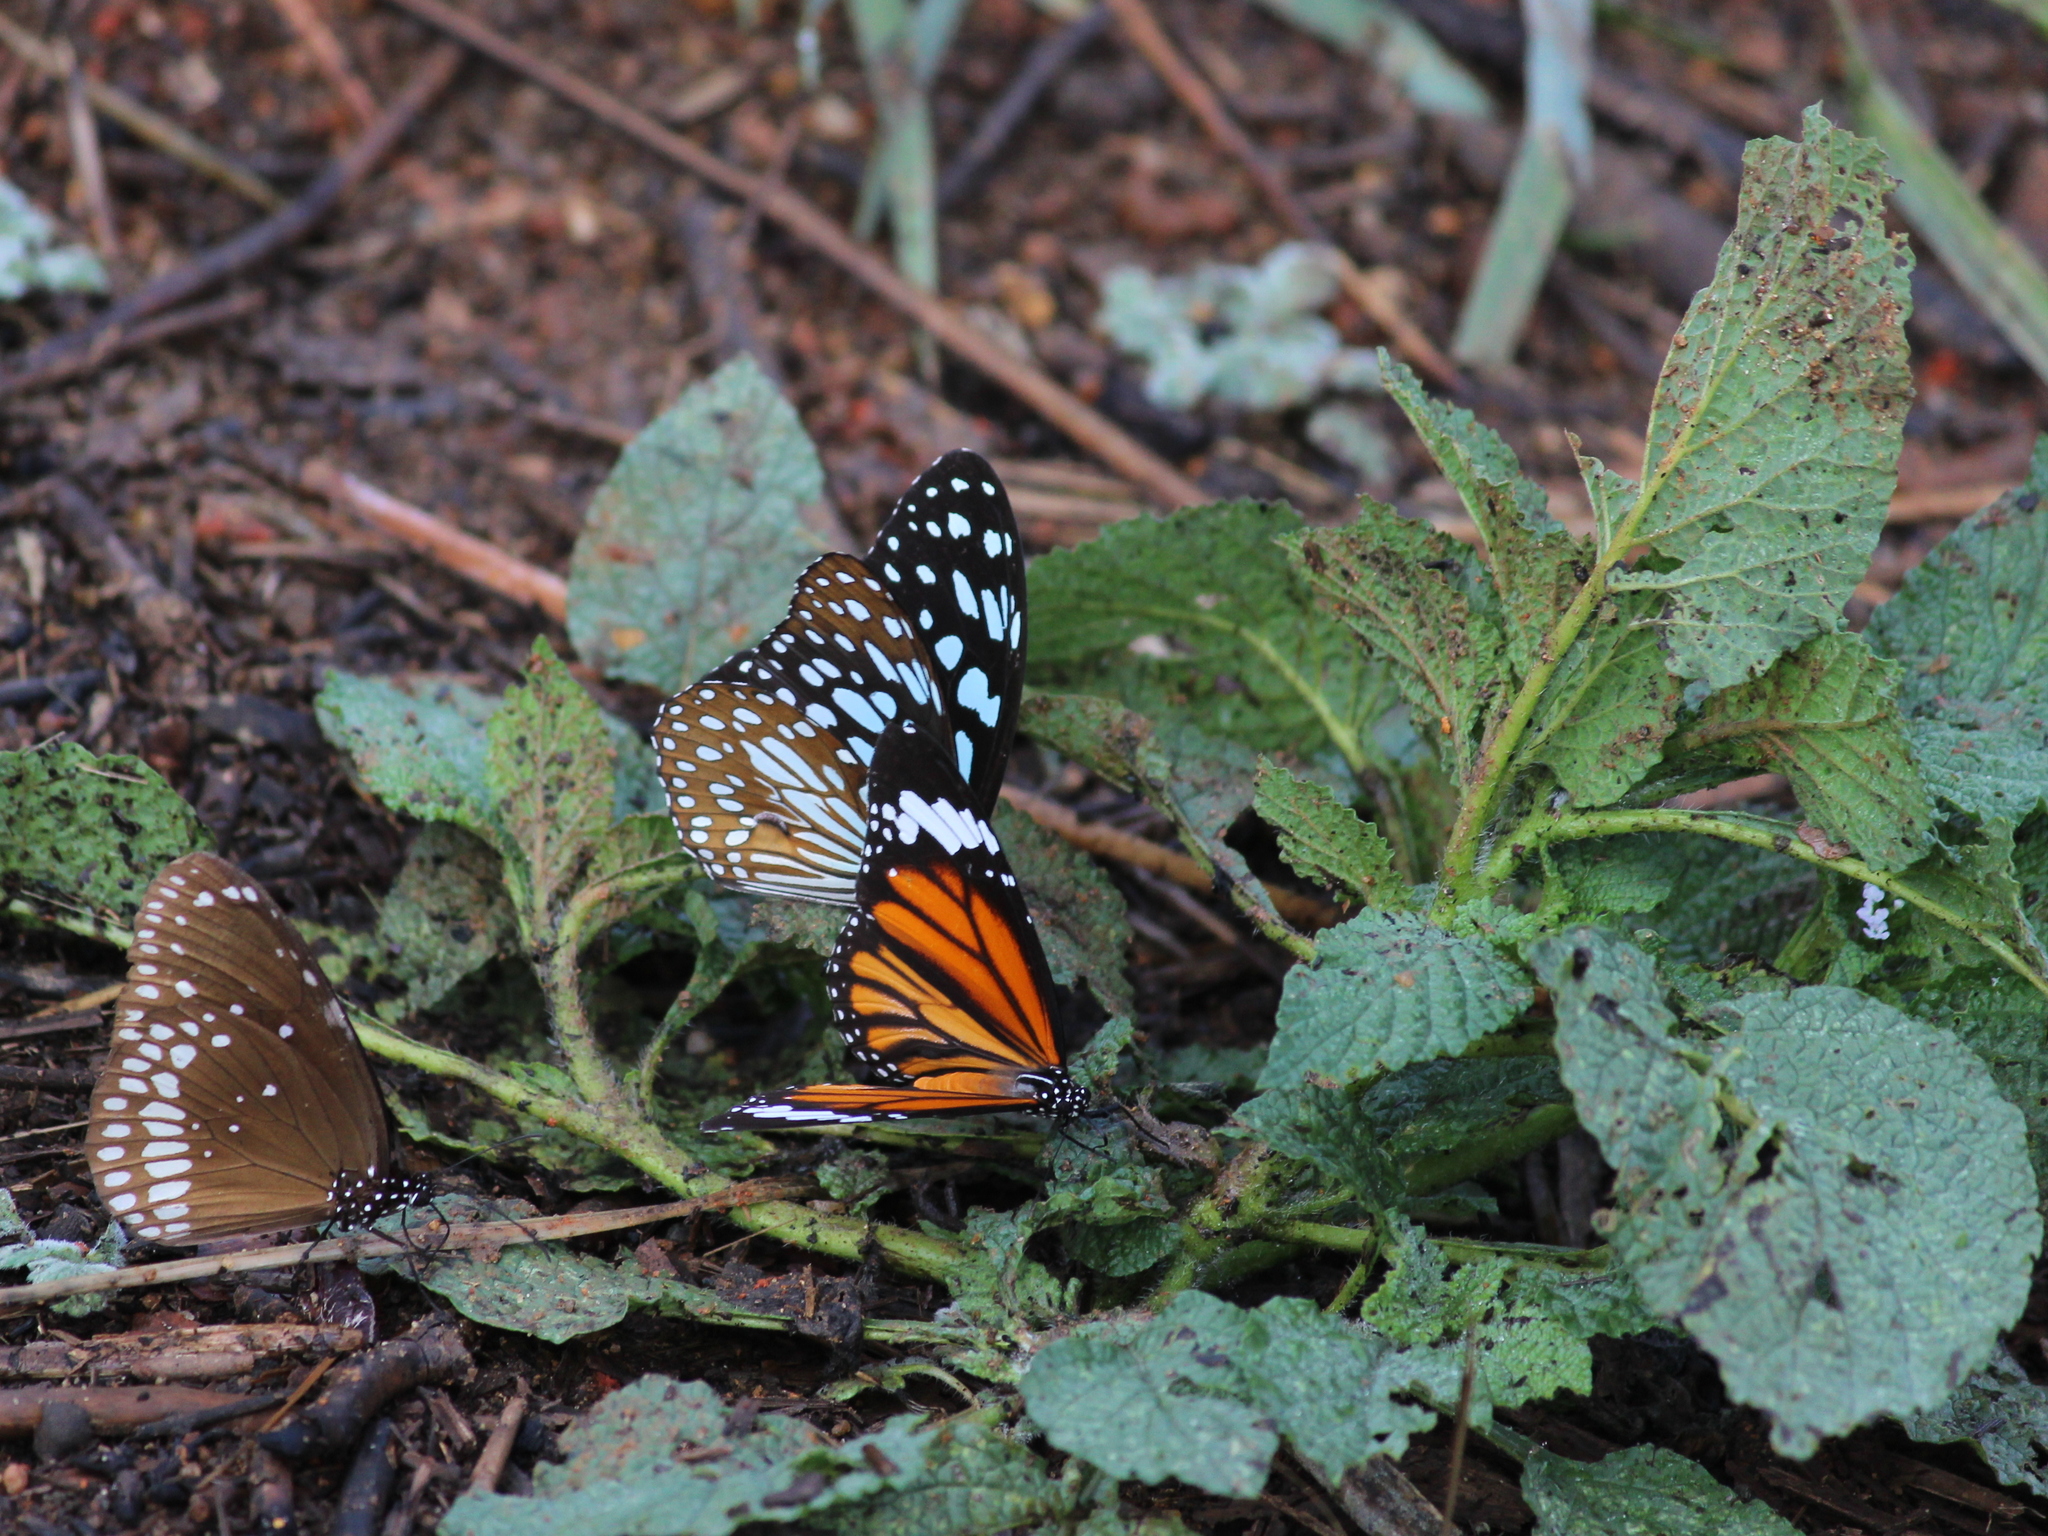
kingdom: Animalia
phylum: Arthropoda
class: Insecta
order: Lepidoptera
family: Nymphalidae
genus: Danaus
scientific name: Danaus genutia
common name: Common tiger butterfly
